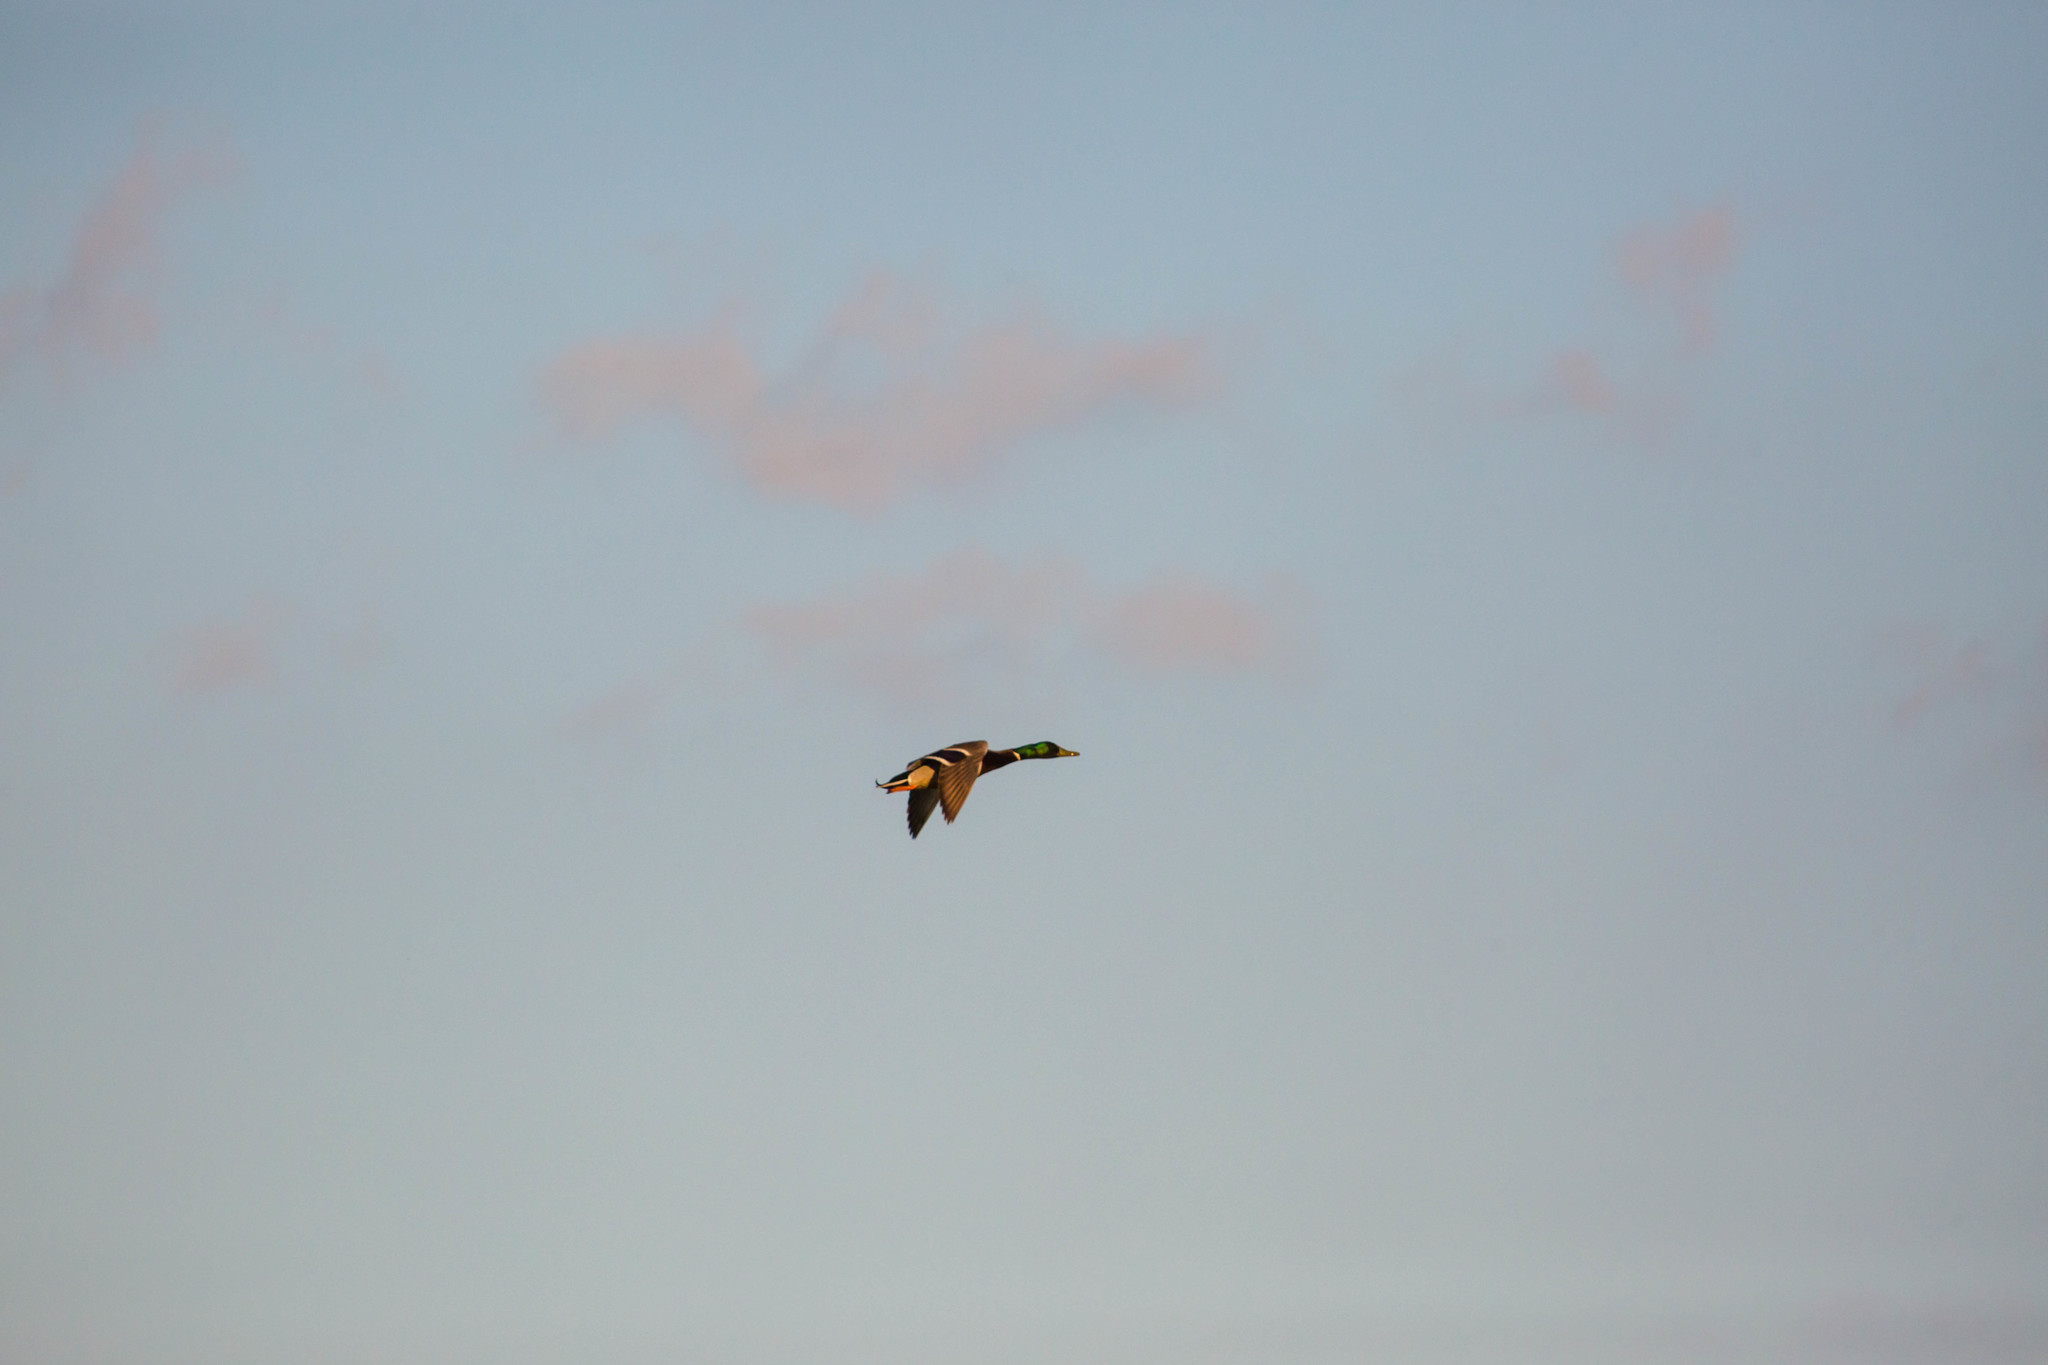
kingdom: Animalia
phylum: Chordata
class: Aves
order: Anseriformes
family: Anatidae
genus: Anas
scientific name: Anas platyrhynchos
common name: Mallard
